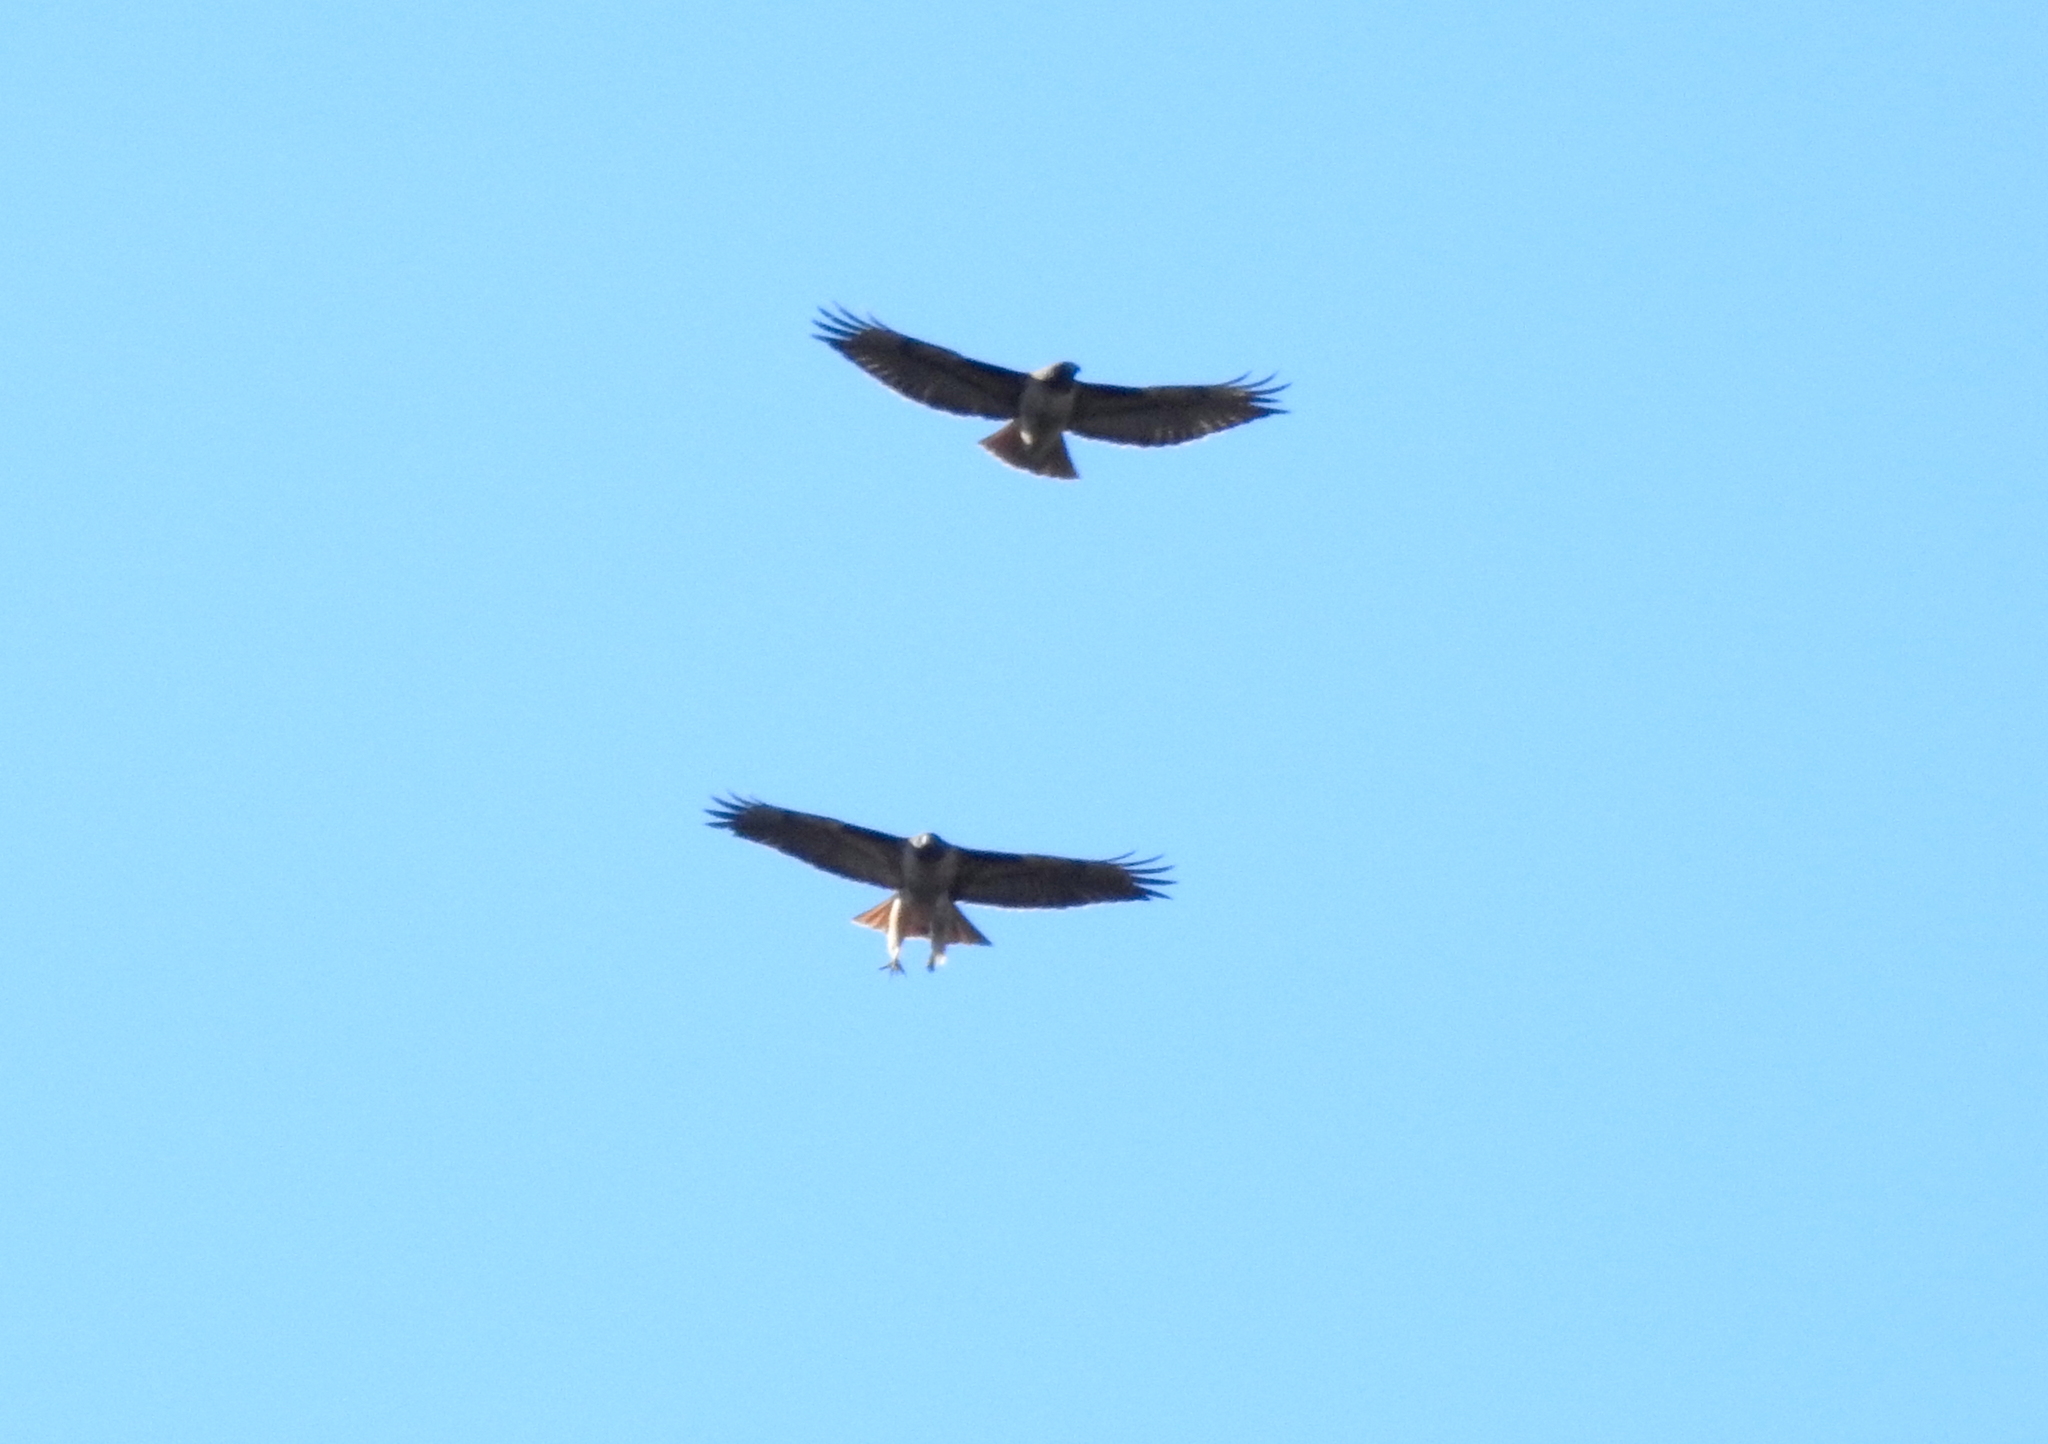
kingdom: Animalia
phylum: Chordata
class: Aves
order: Accipitriformes
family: Accipitridae
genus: Buteo
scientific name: Buteo jamaicensis
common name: Red-tailed hawk
